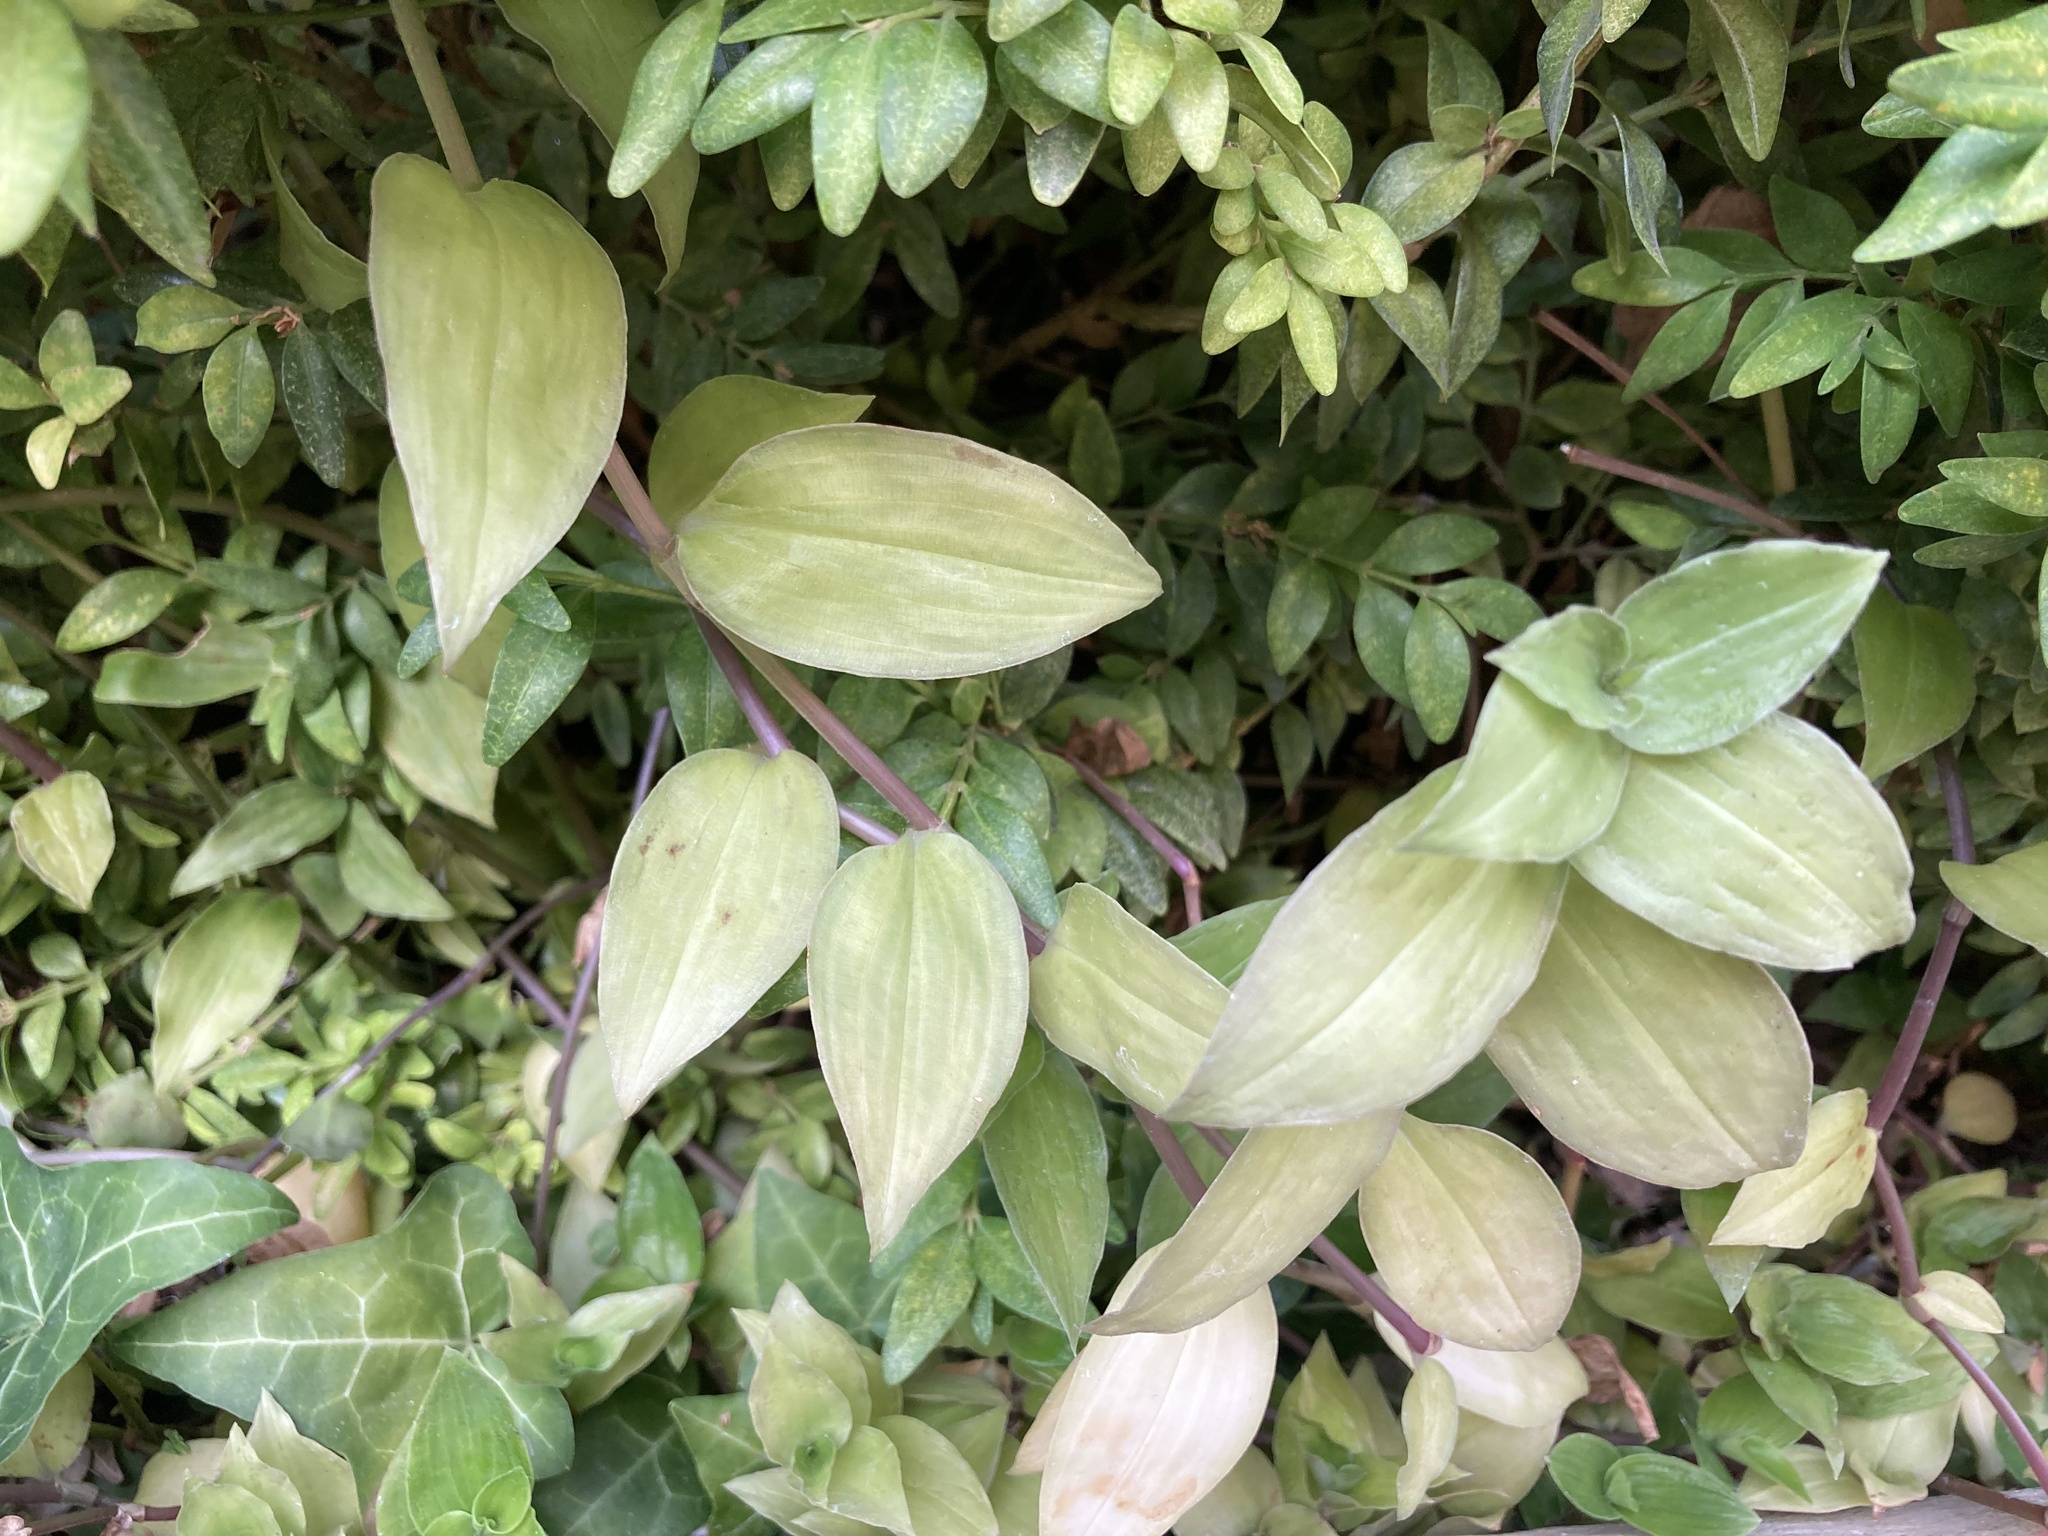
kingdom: Plantae
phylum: Tracheophyta
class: Liliopsida
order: Commelinales
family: Commelinaceae
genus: Tradescantia
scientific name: Tradescantia fluminensis
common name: Wandering-jew
